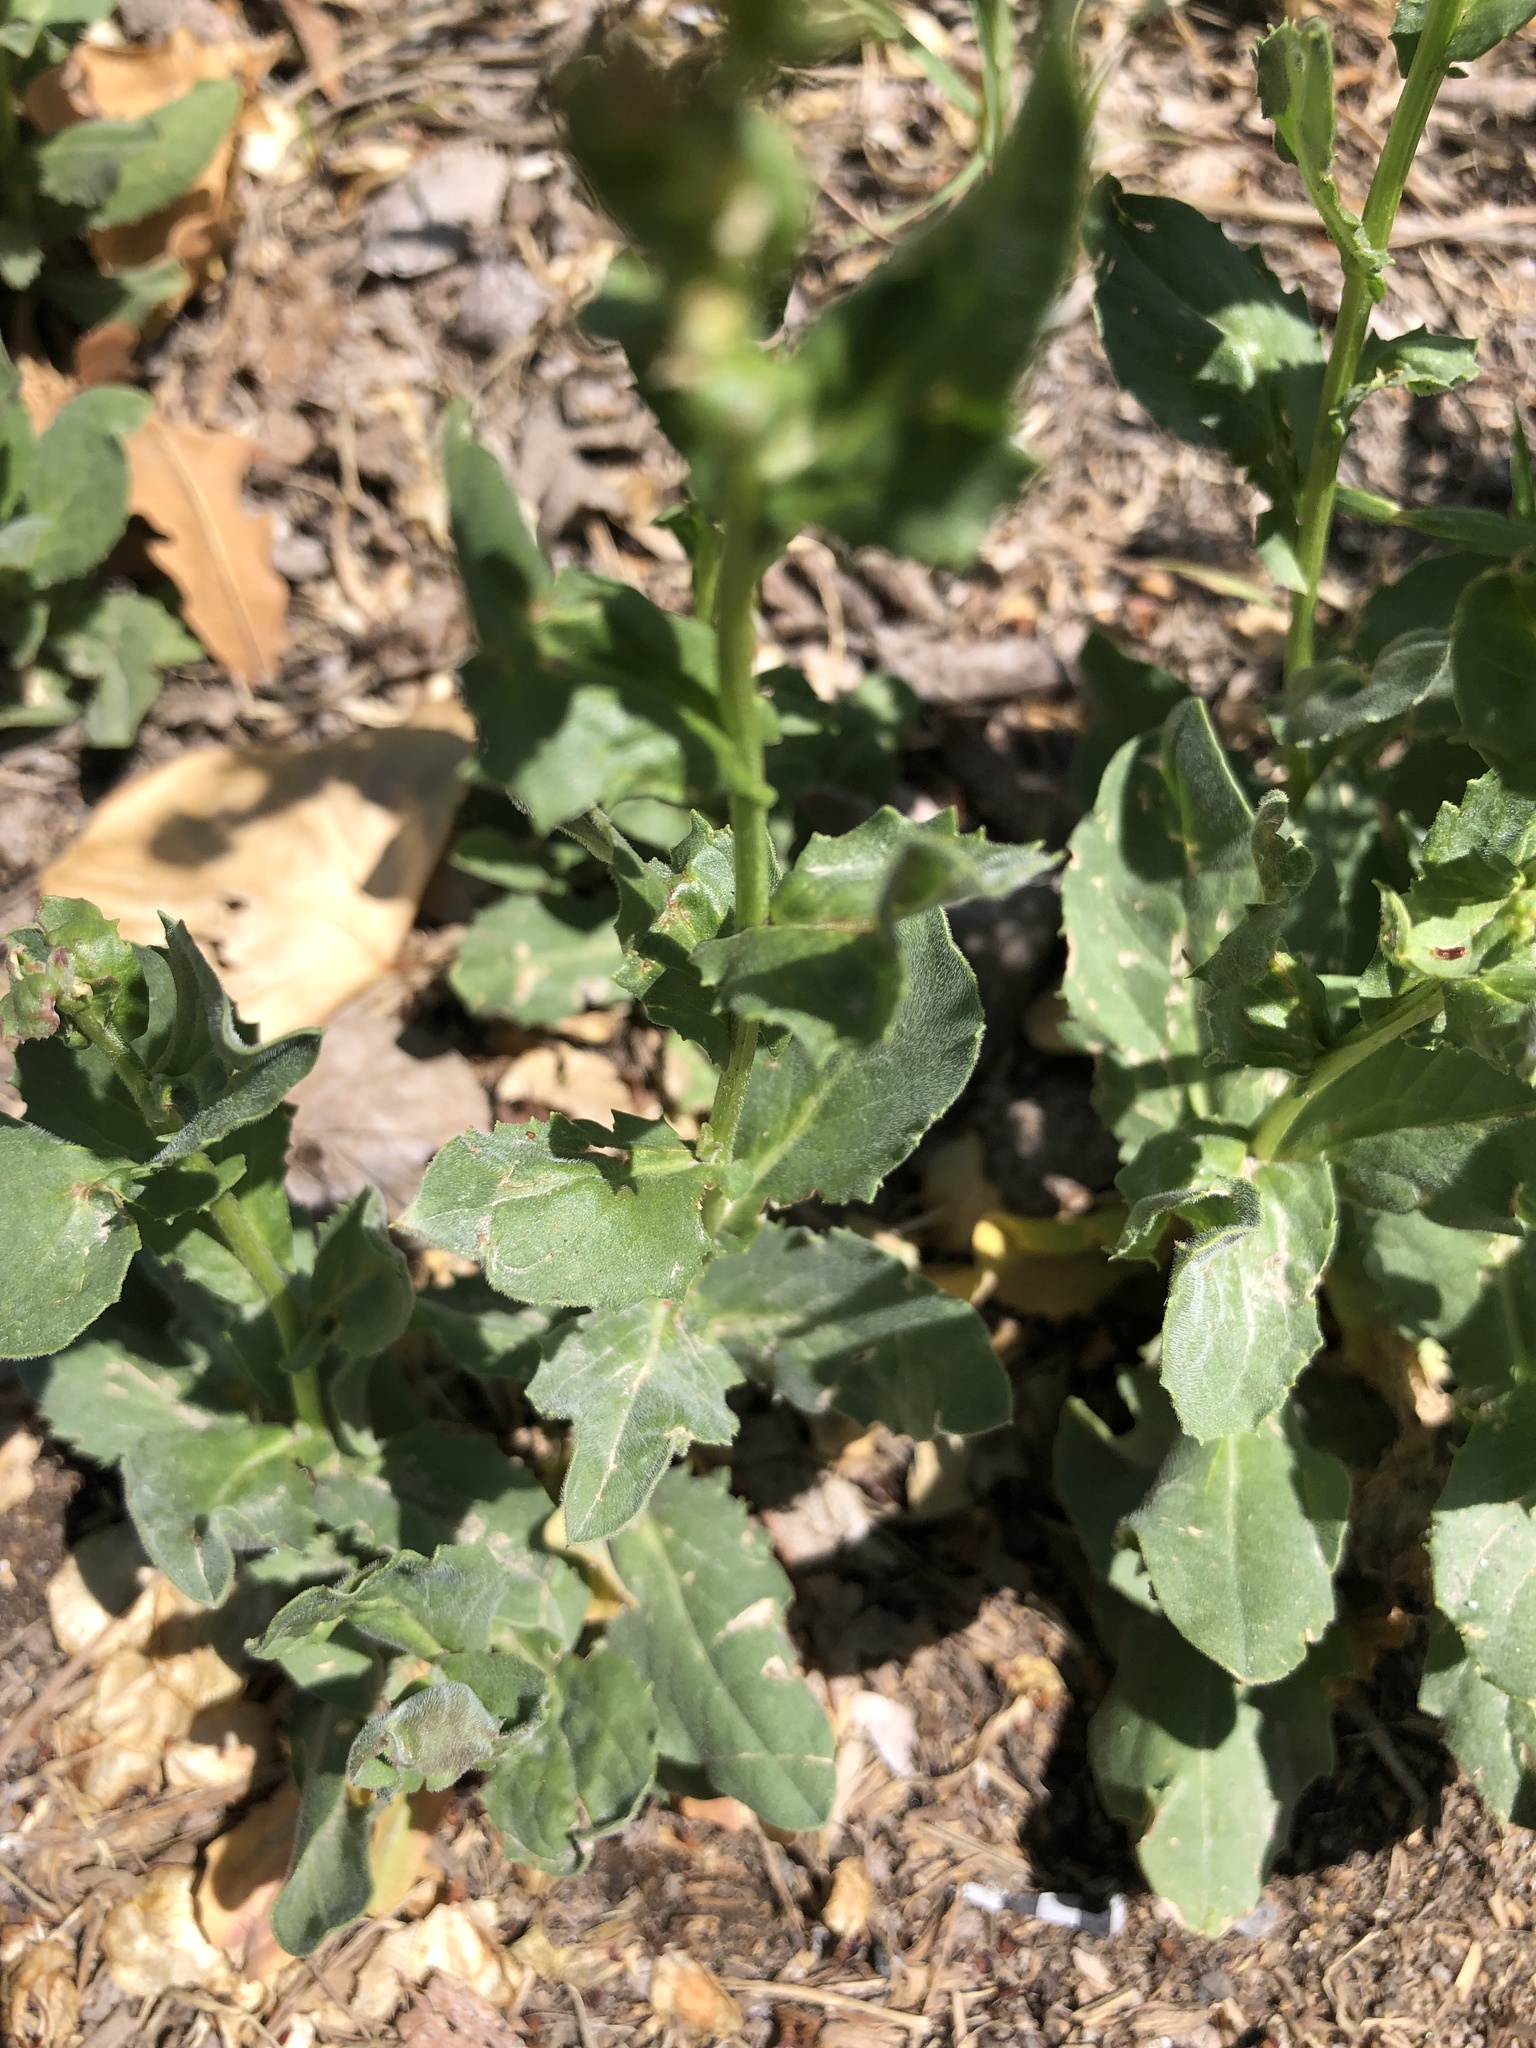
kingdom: Plantae
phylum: Tracheophyta
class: Magnoliopsida
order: Brassicales
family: Brassicaceae
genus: Lepidium
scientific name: Lepidium campestre
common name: Field pepperwort
